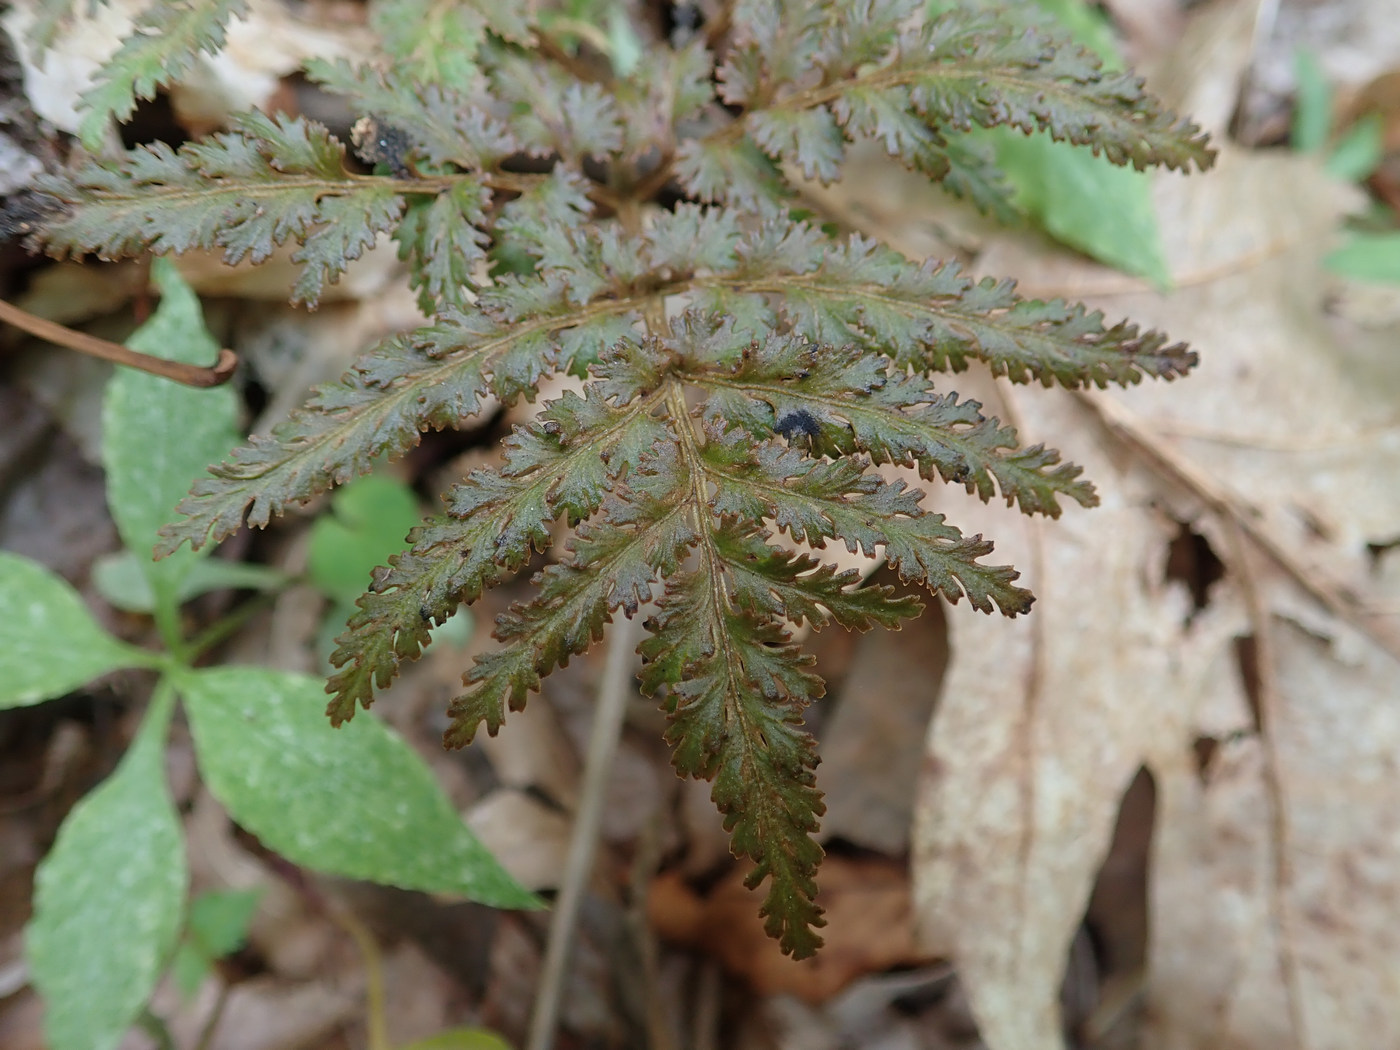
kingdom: Plantae
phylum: Tracheophyta
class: Polypodiopsida
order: Ophioglossales
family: Ophioglossaceae
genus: Sceptridium
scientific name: Sceptridium dissectum
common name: Cut-leaved grapefern
